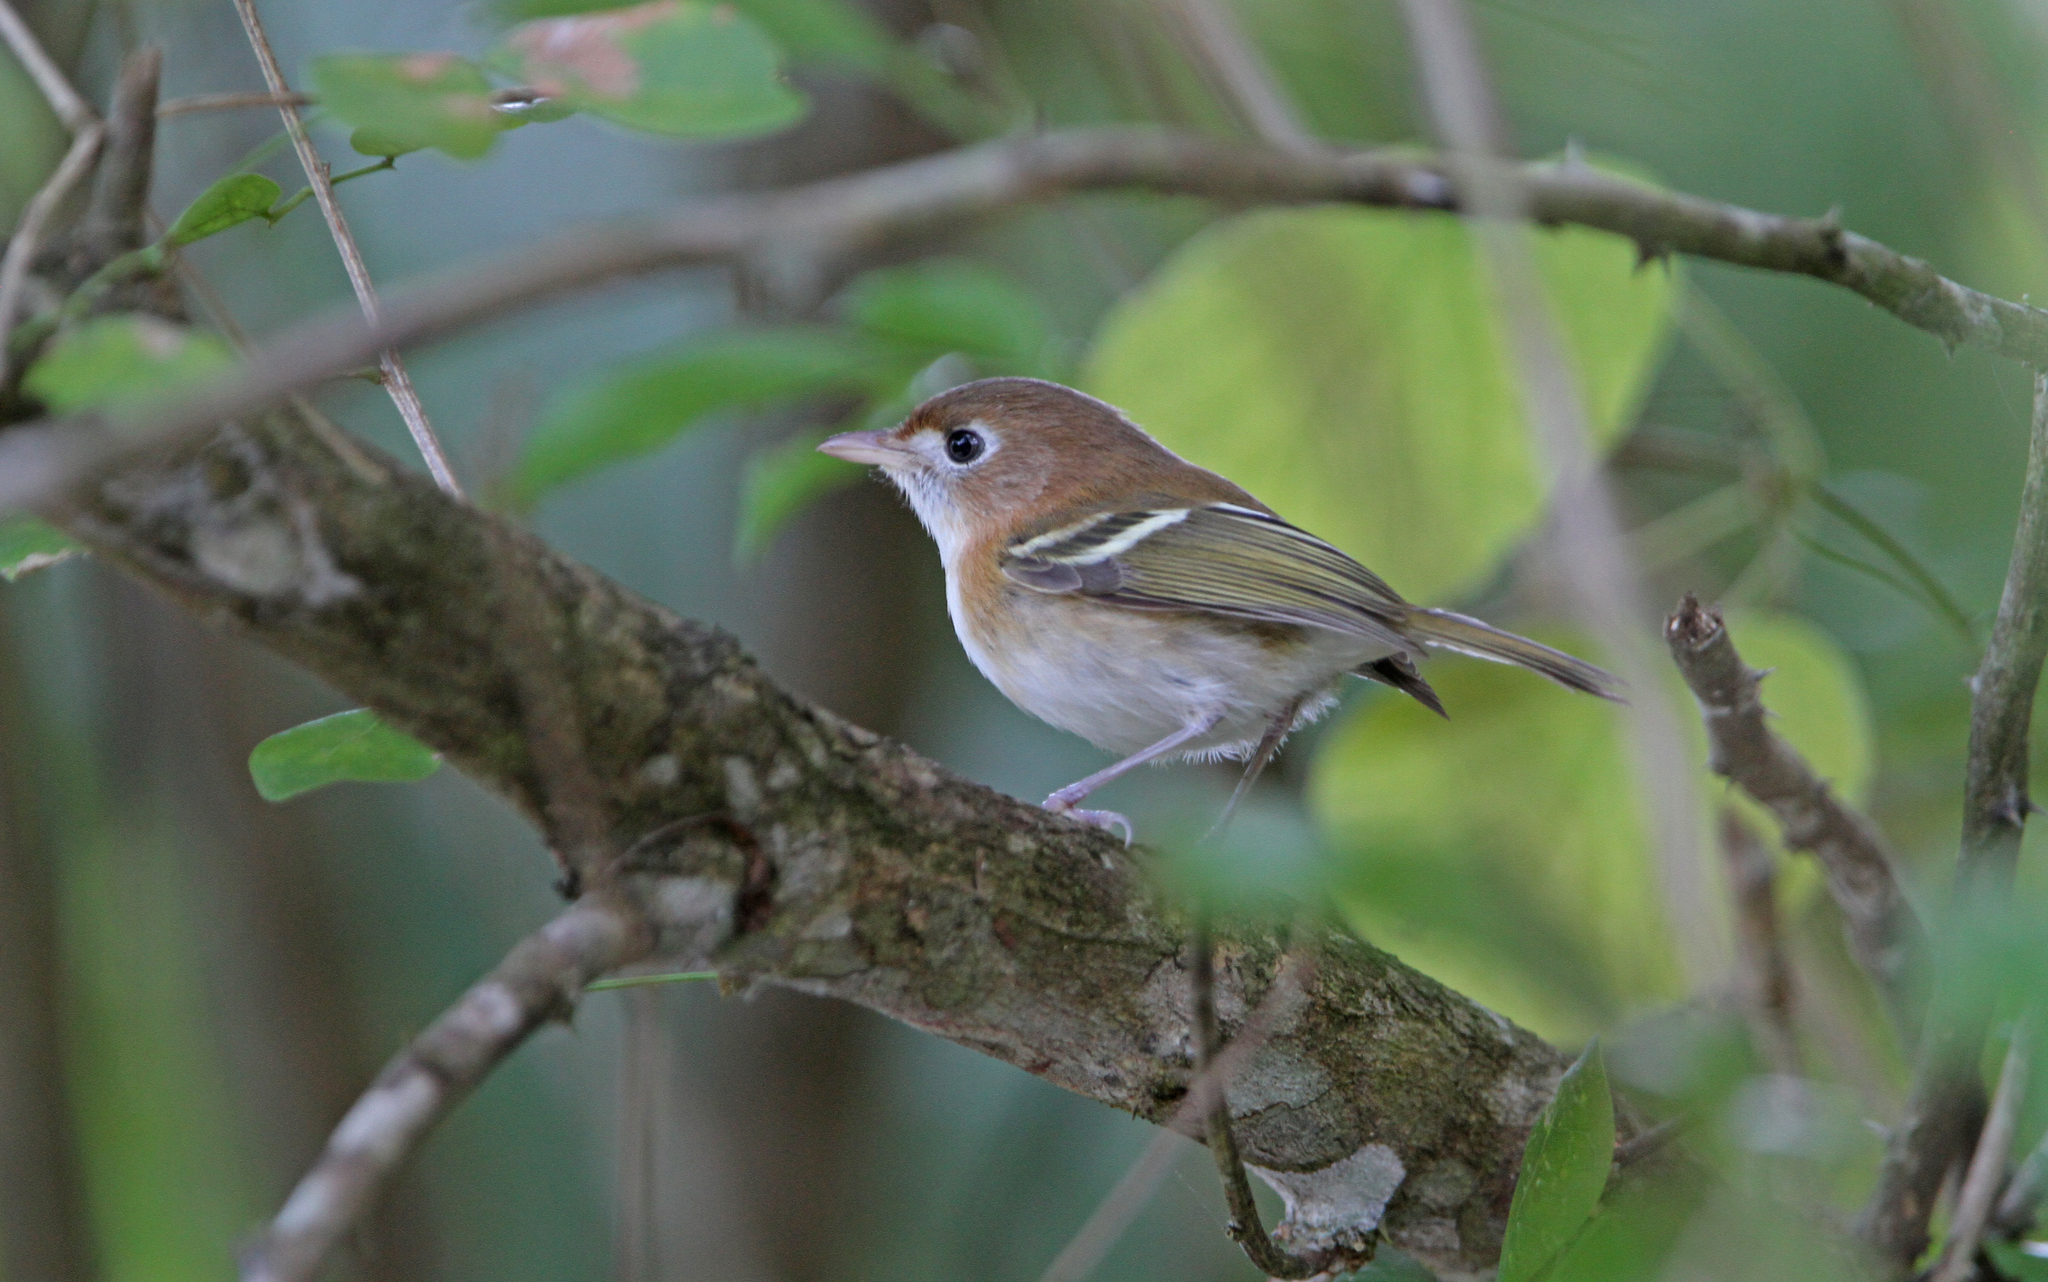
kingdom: Animalia
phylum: Chordata
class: Aves
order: Passeriformes
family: Vireonidae
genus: Vireo
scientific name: Vireo bairdi
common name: Cozumel vireo
